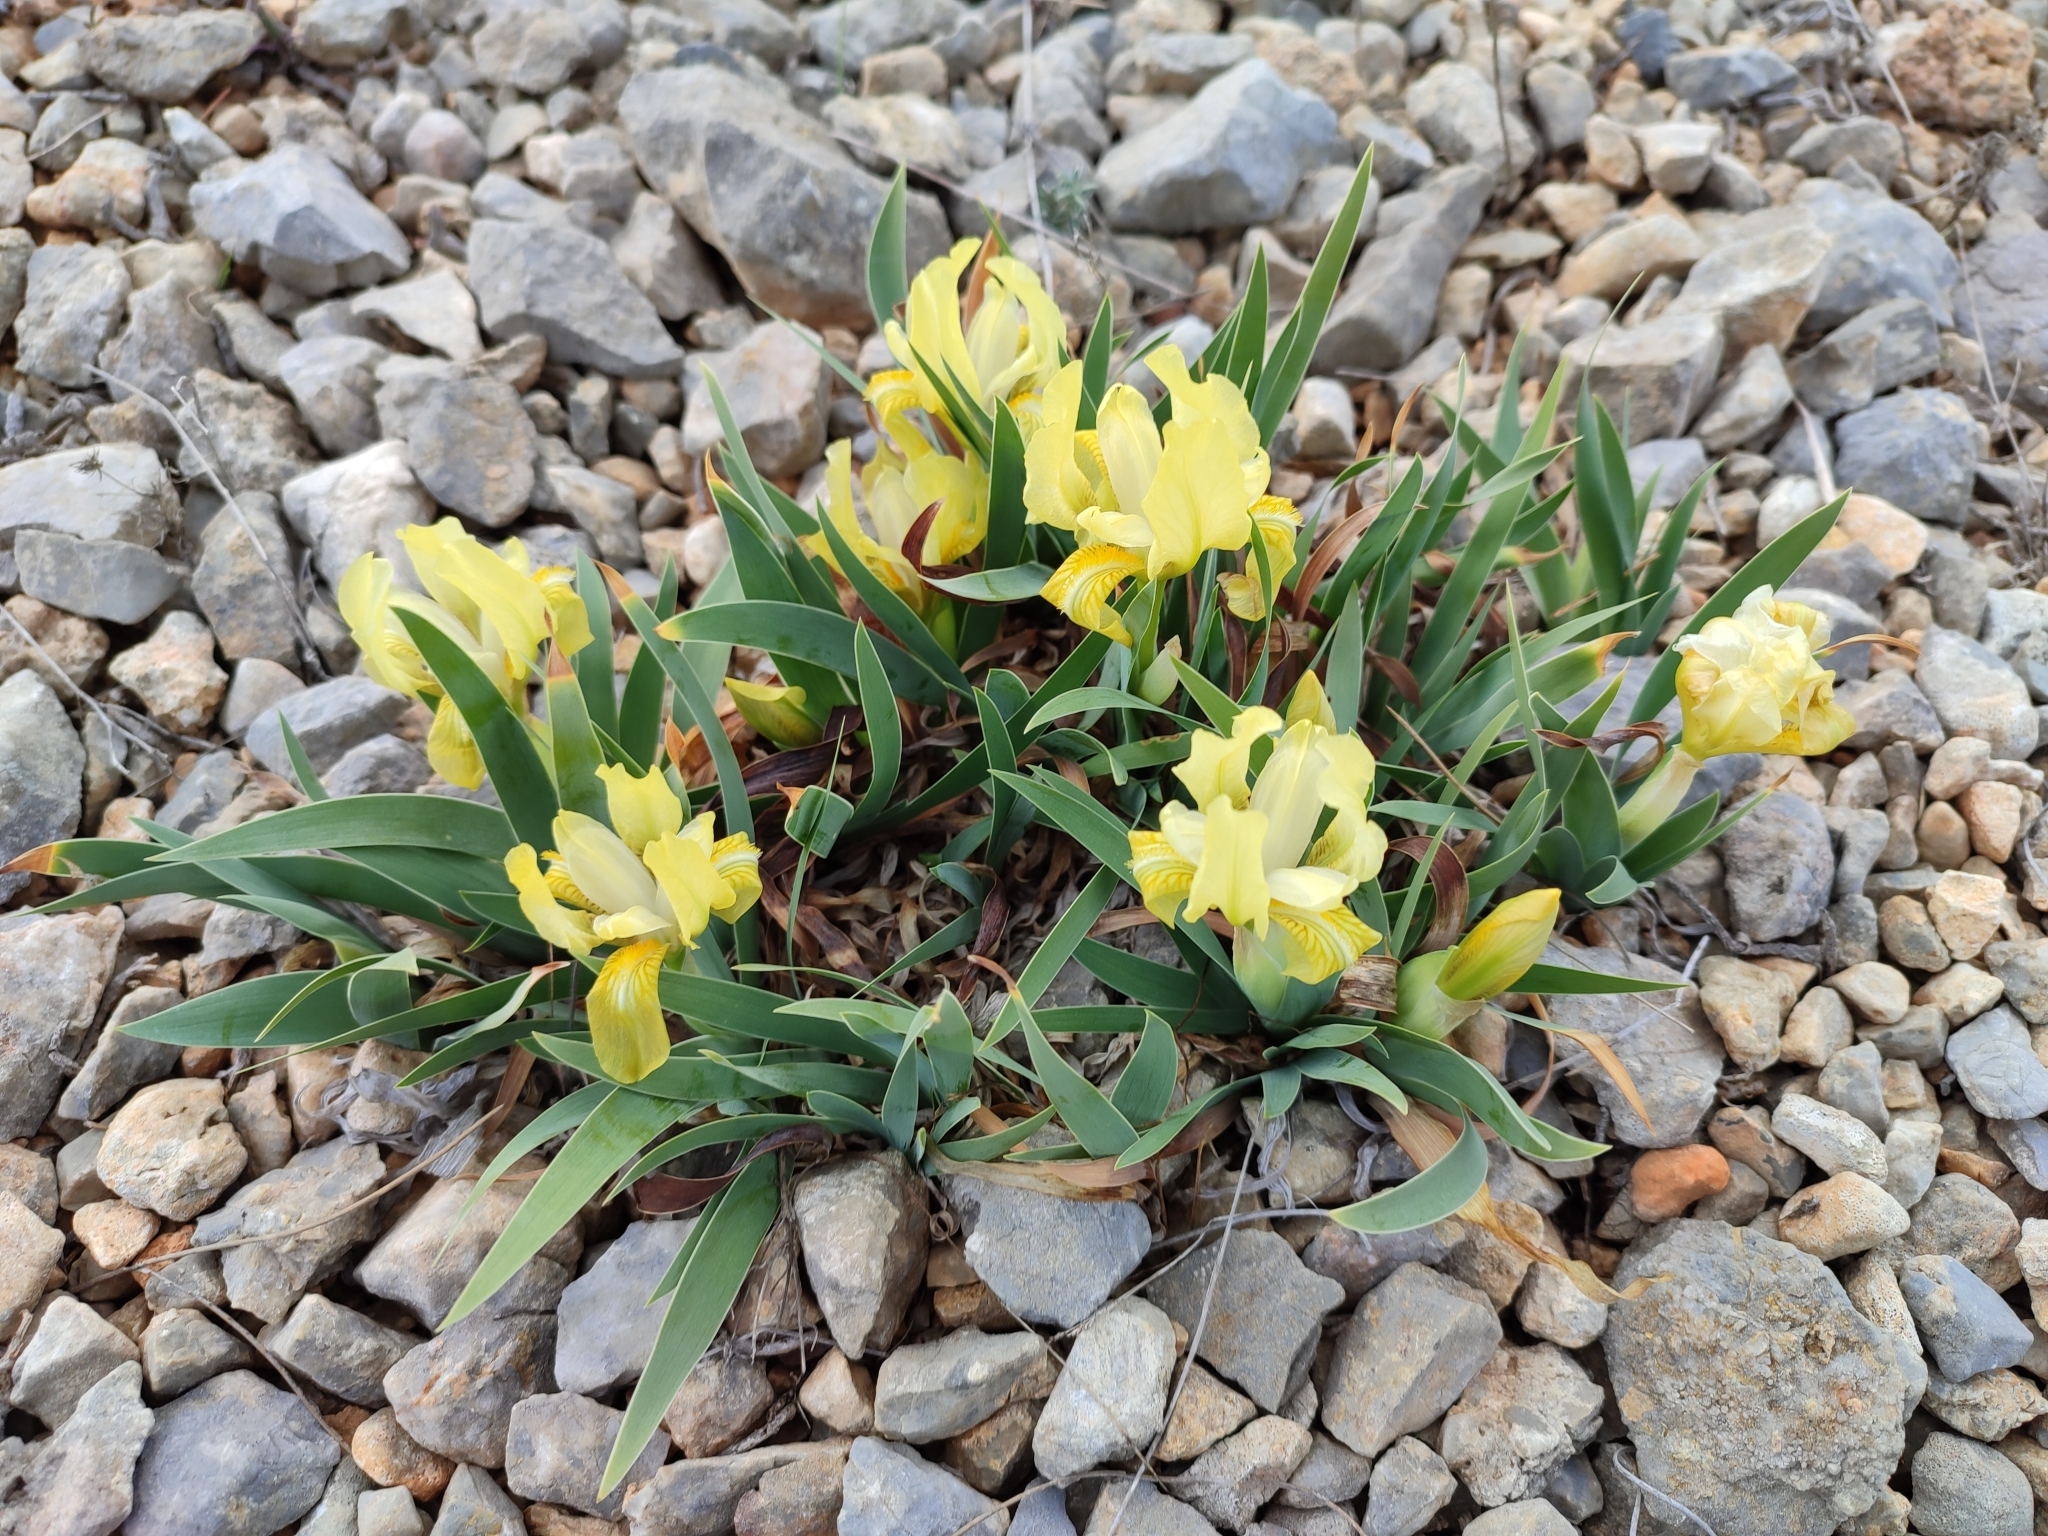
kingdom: Plantae
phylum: Tracheophyta
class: Liliopsida
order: Asparagales
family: Iridaceae
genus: Iris
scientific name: Iris lutescens
